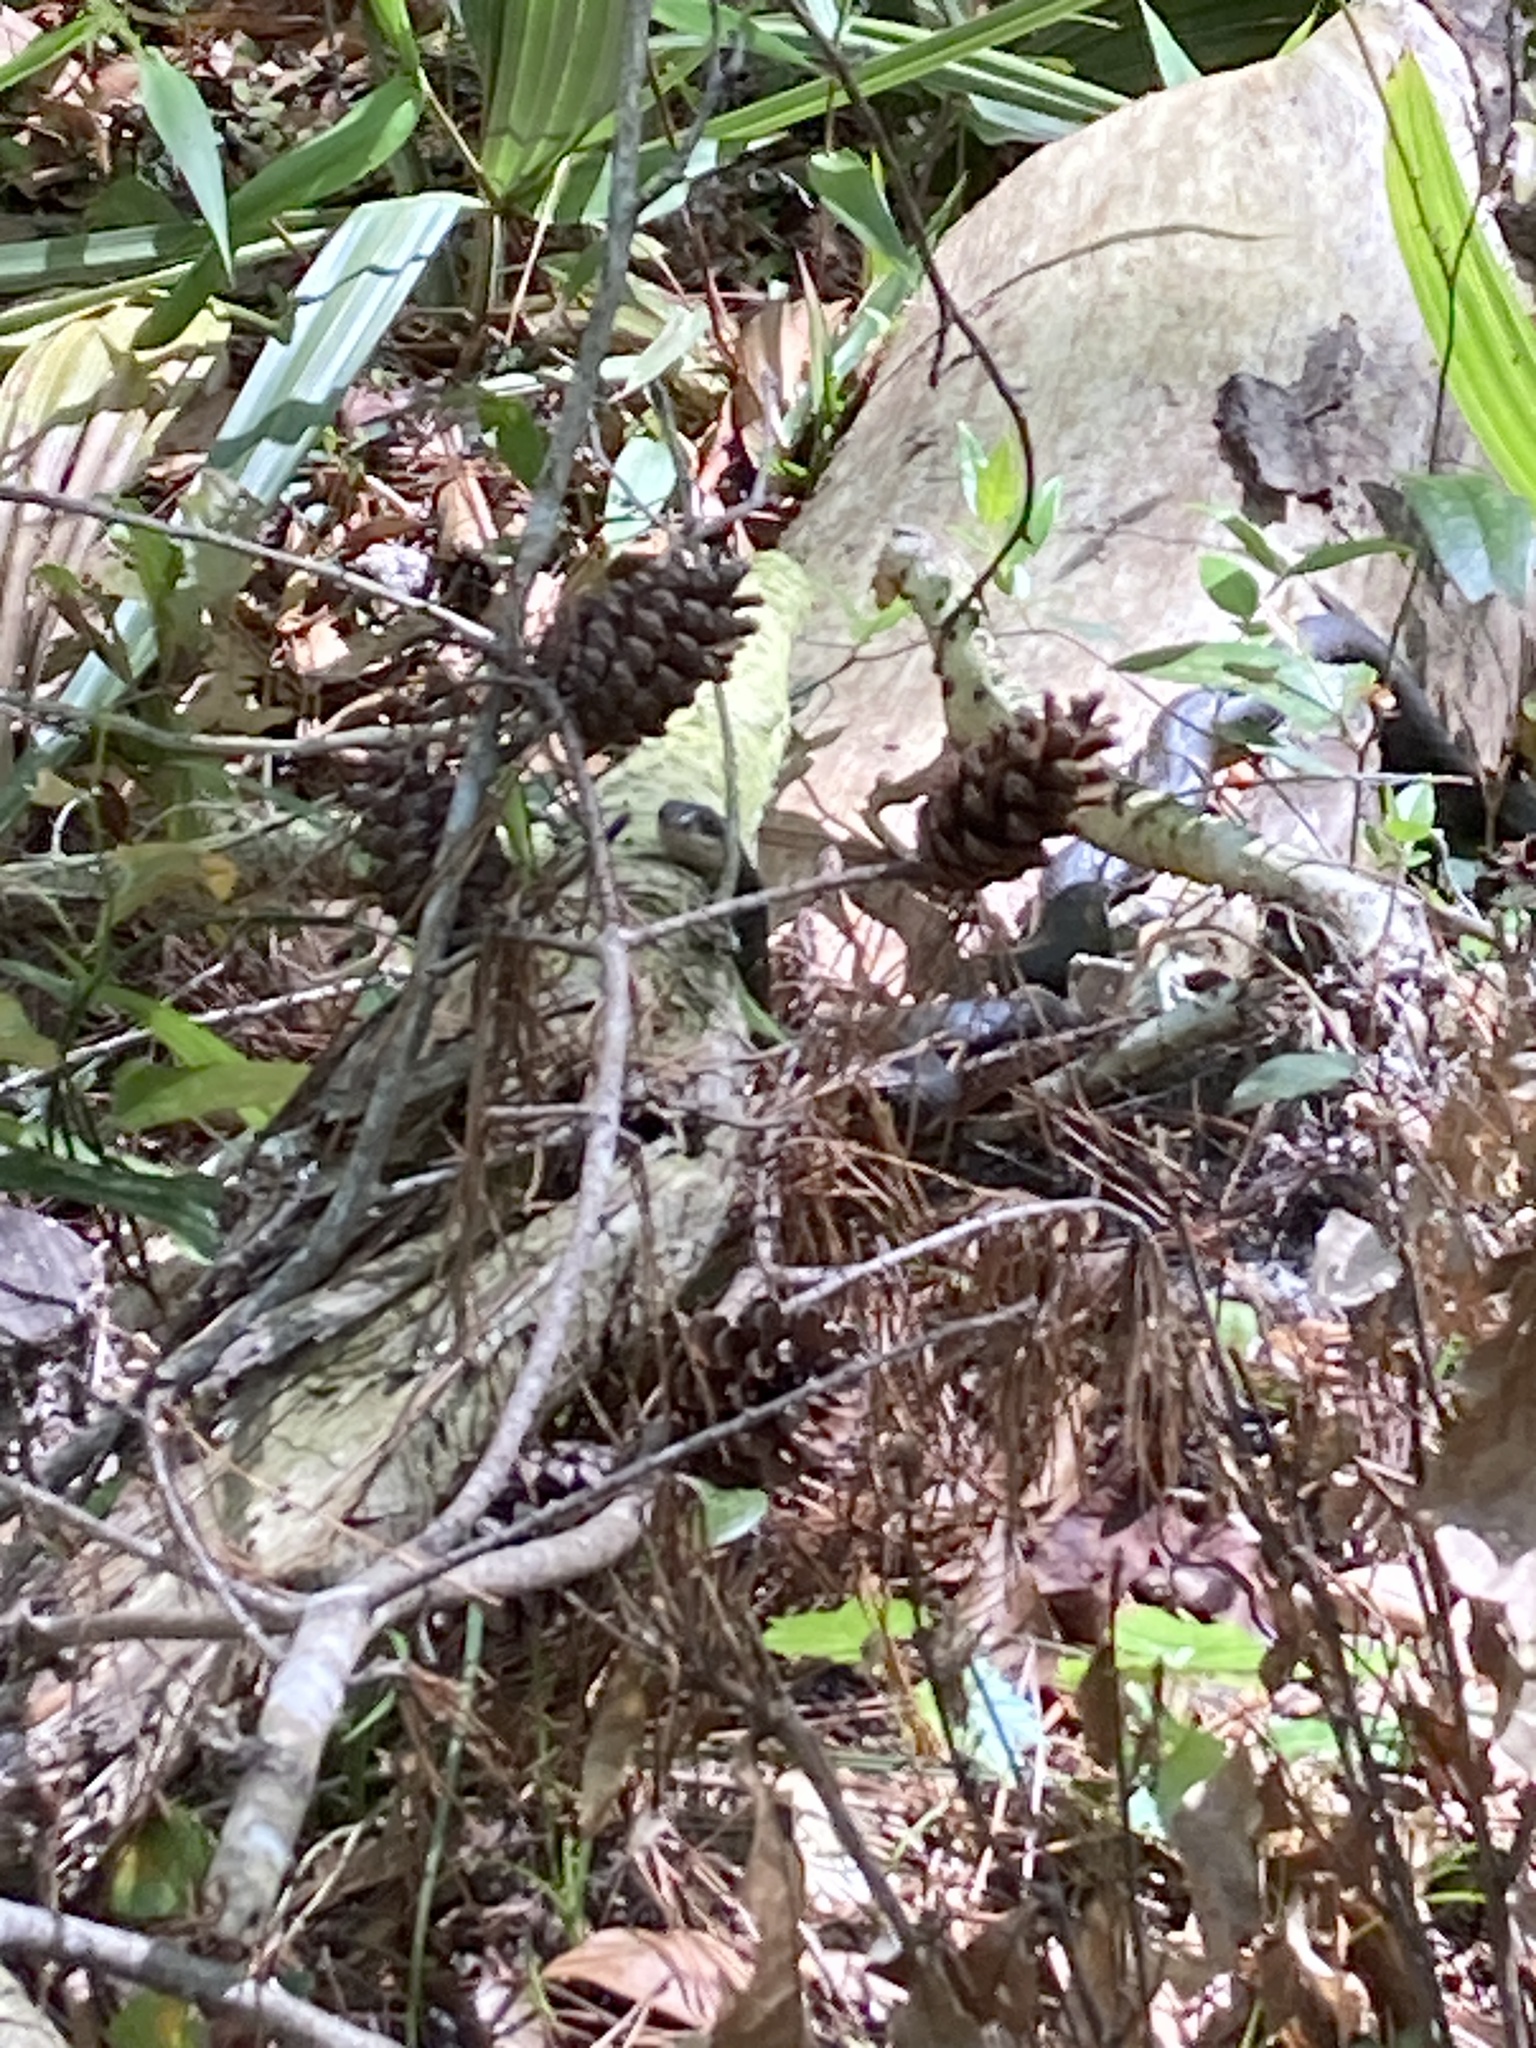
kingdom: Animalia
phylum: Chordata
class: Squamata
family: Colubridae
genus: Coluber
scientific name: Coluber constrictor
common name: Eastern racer
